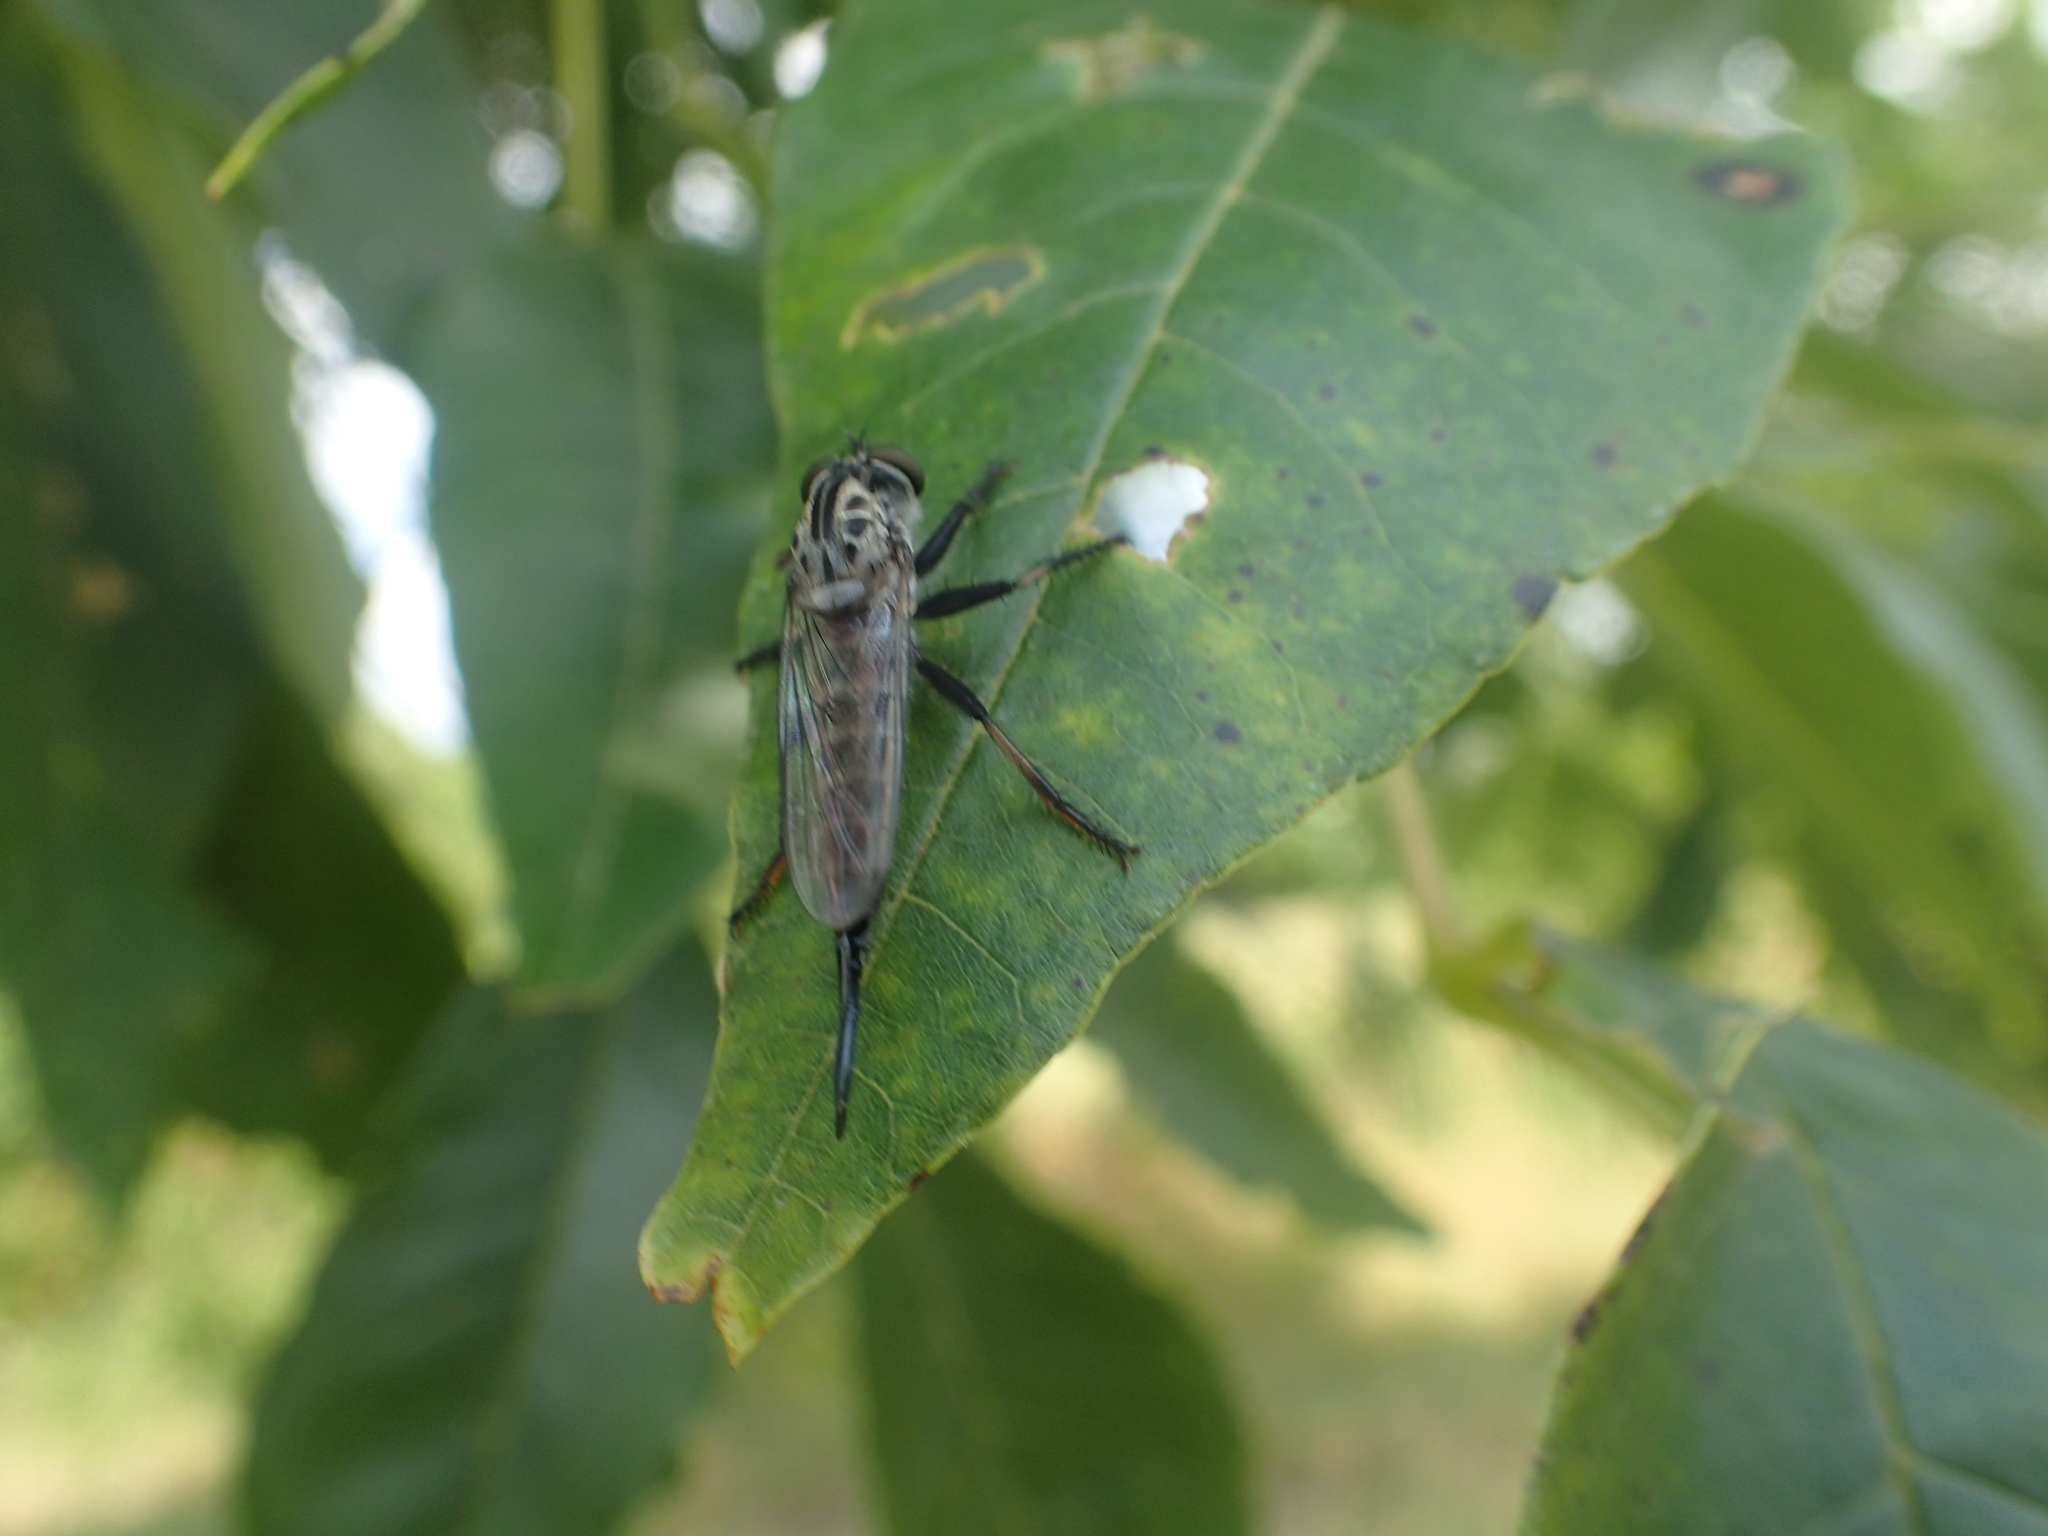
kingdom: Animalia
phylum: Arthropoda
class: Insecta
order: Diptera
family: Asilidae
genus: Efferia
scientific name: Efferia aestuans
